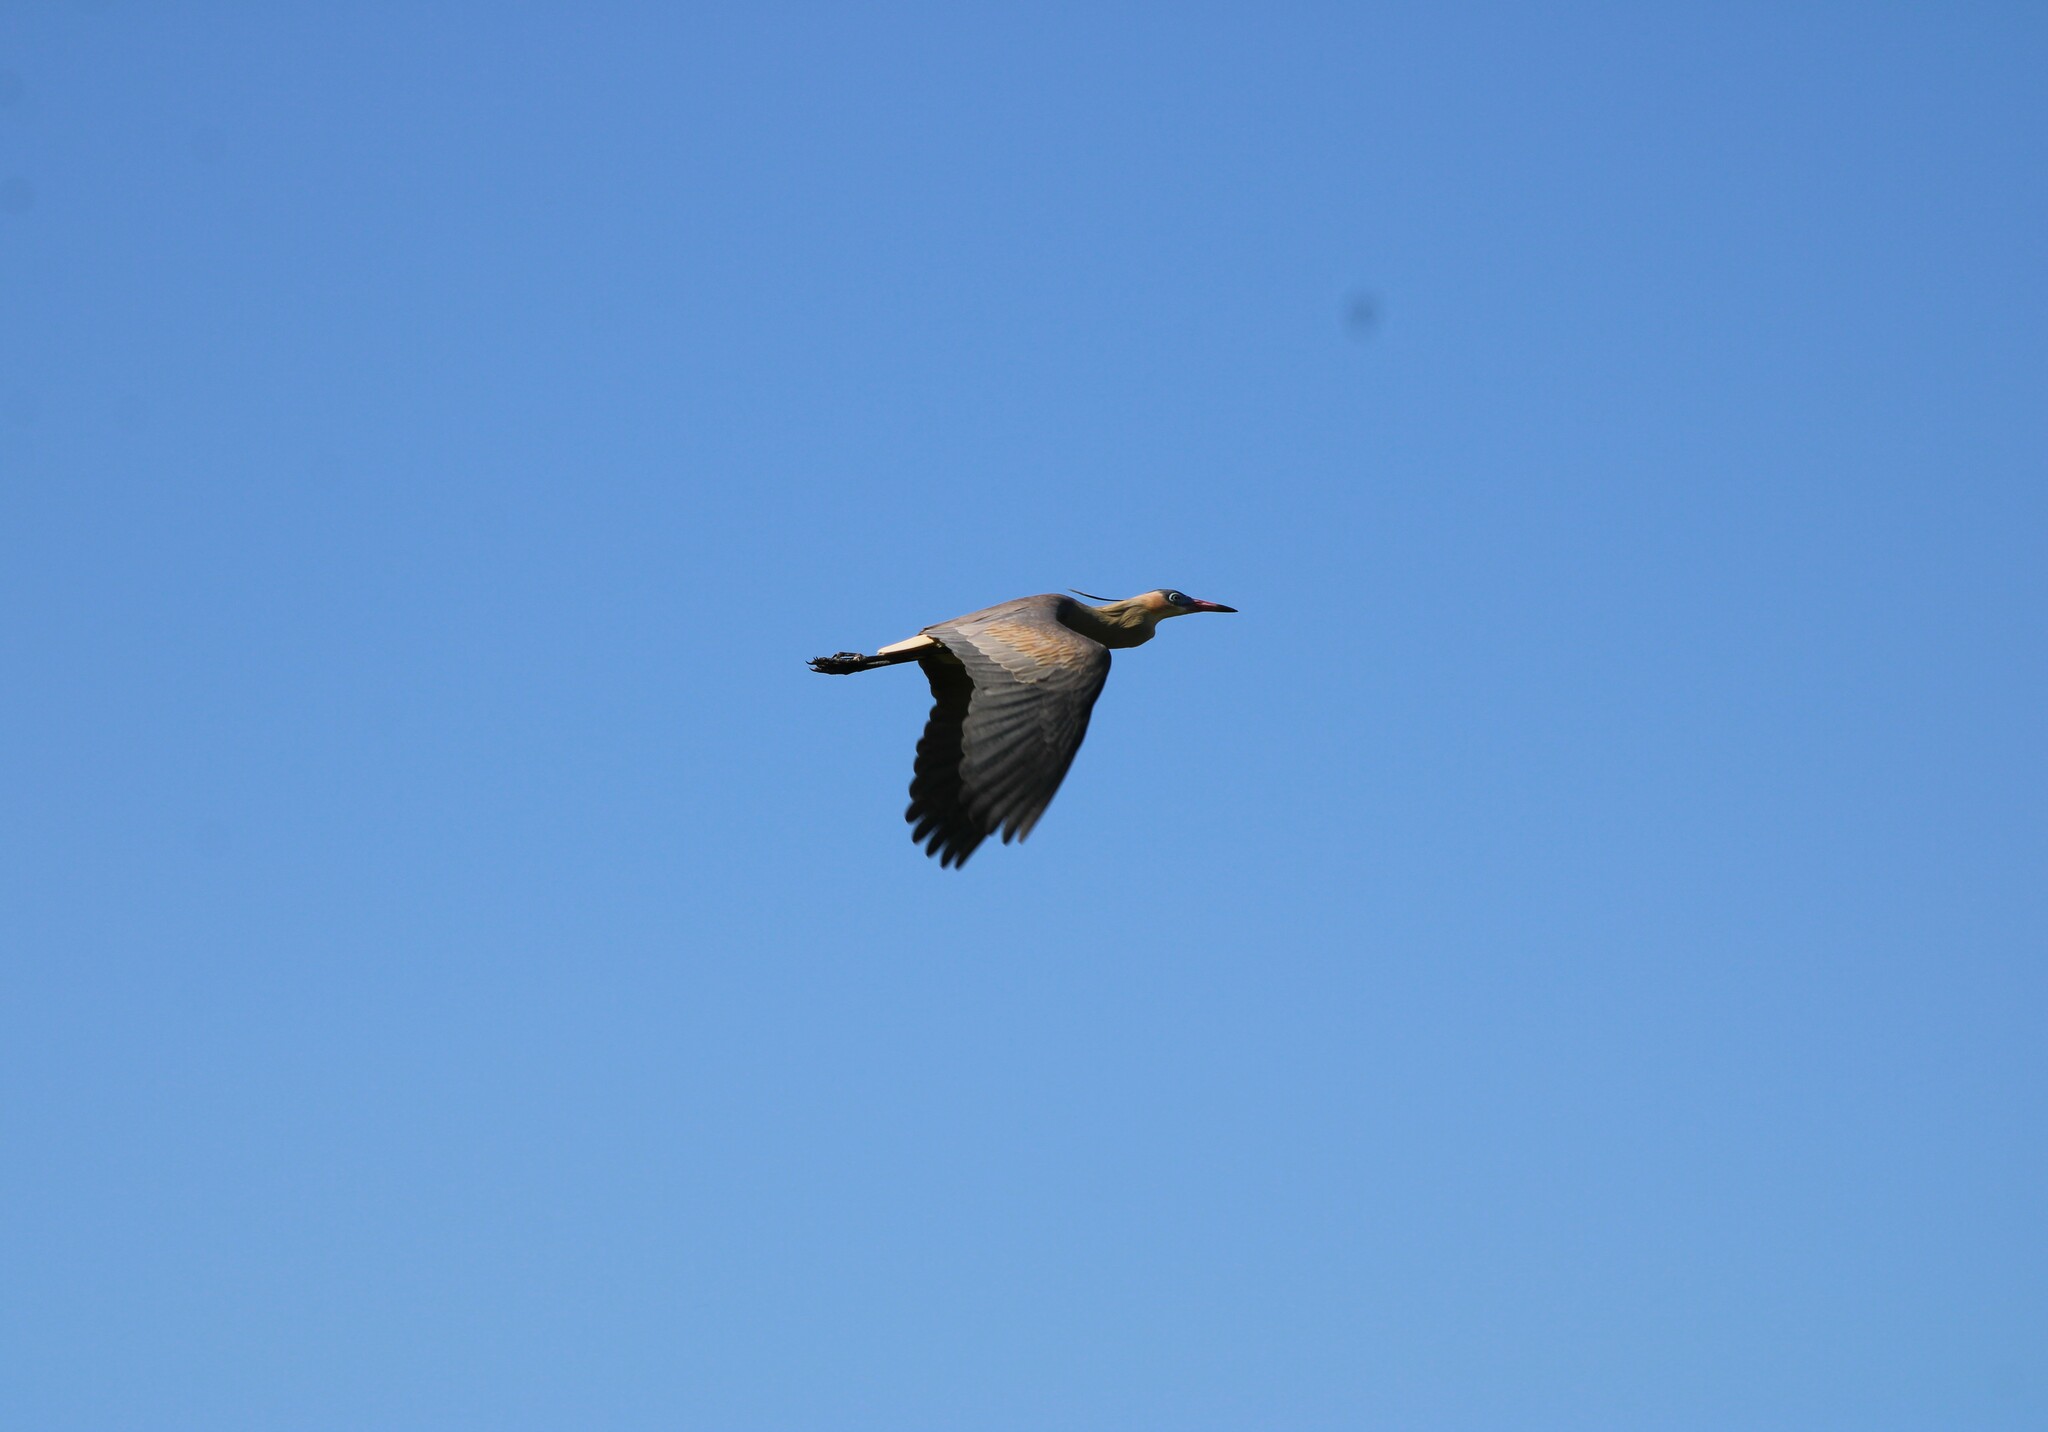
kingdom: Animalia
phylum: Chordata
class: Aves
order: Pelecaniformes
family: Ardeidae
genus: Syrigma
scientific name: Syrigma sibilatrix
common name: Whistling heron
